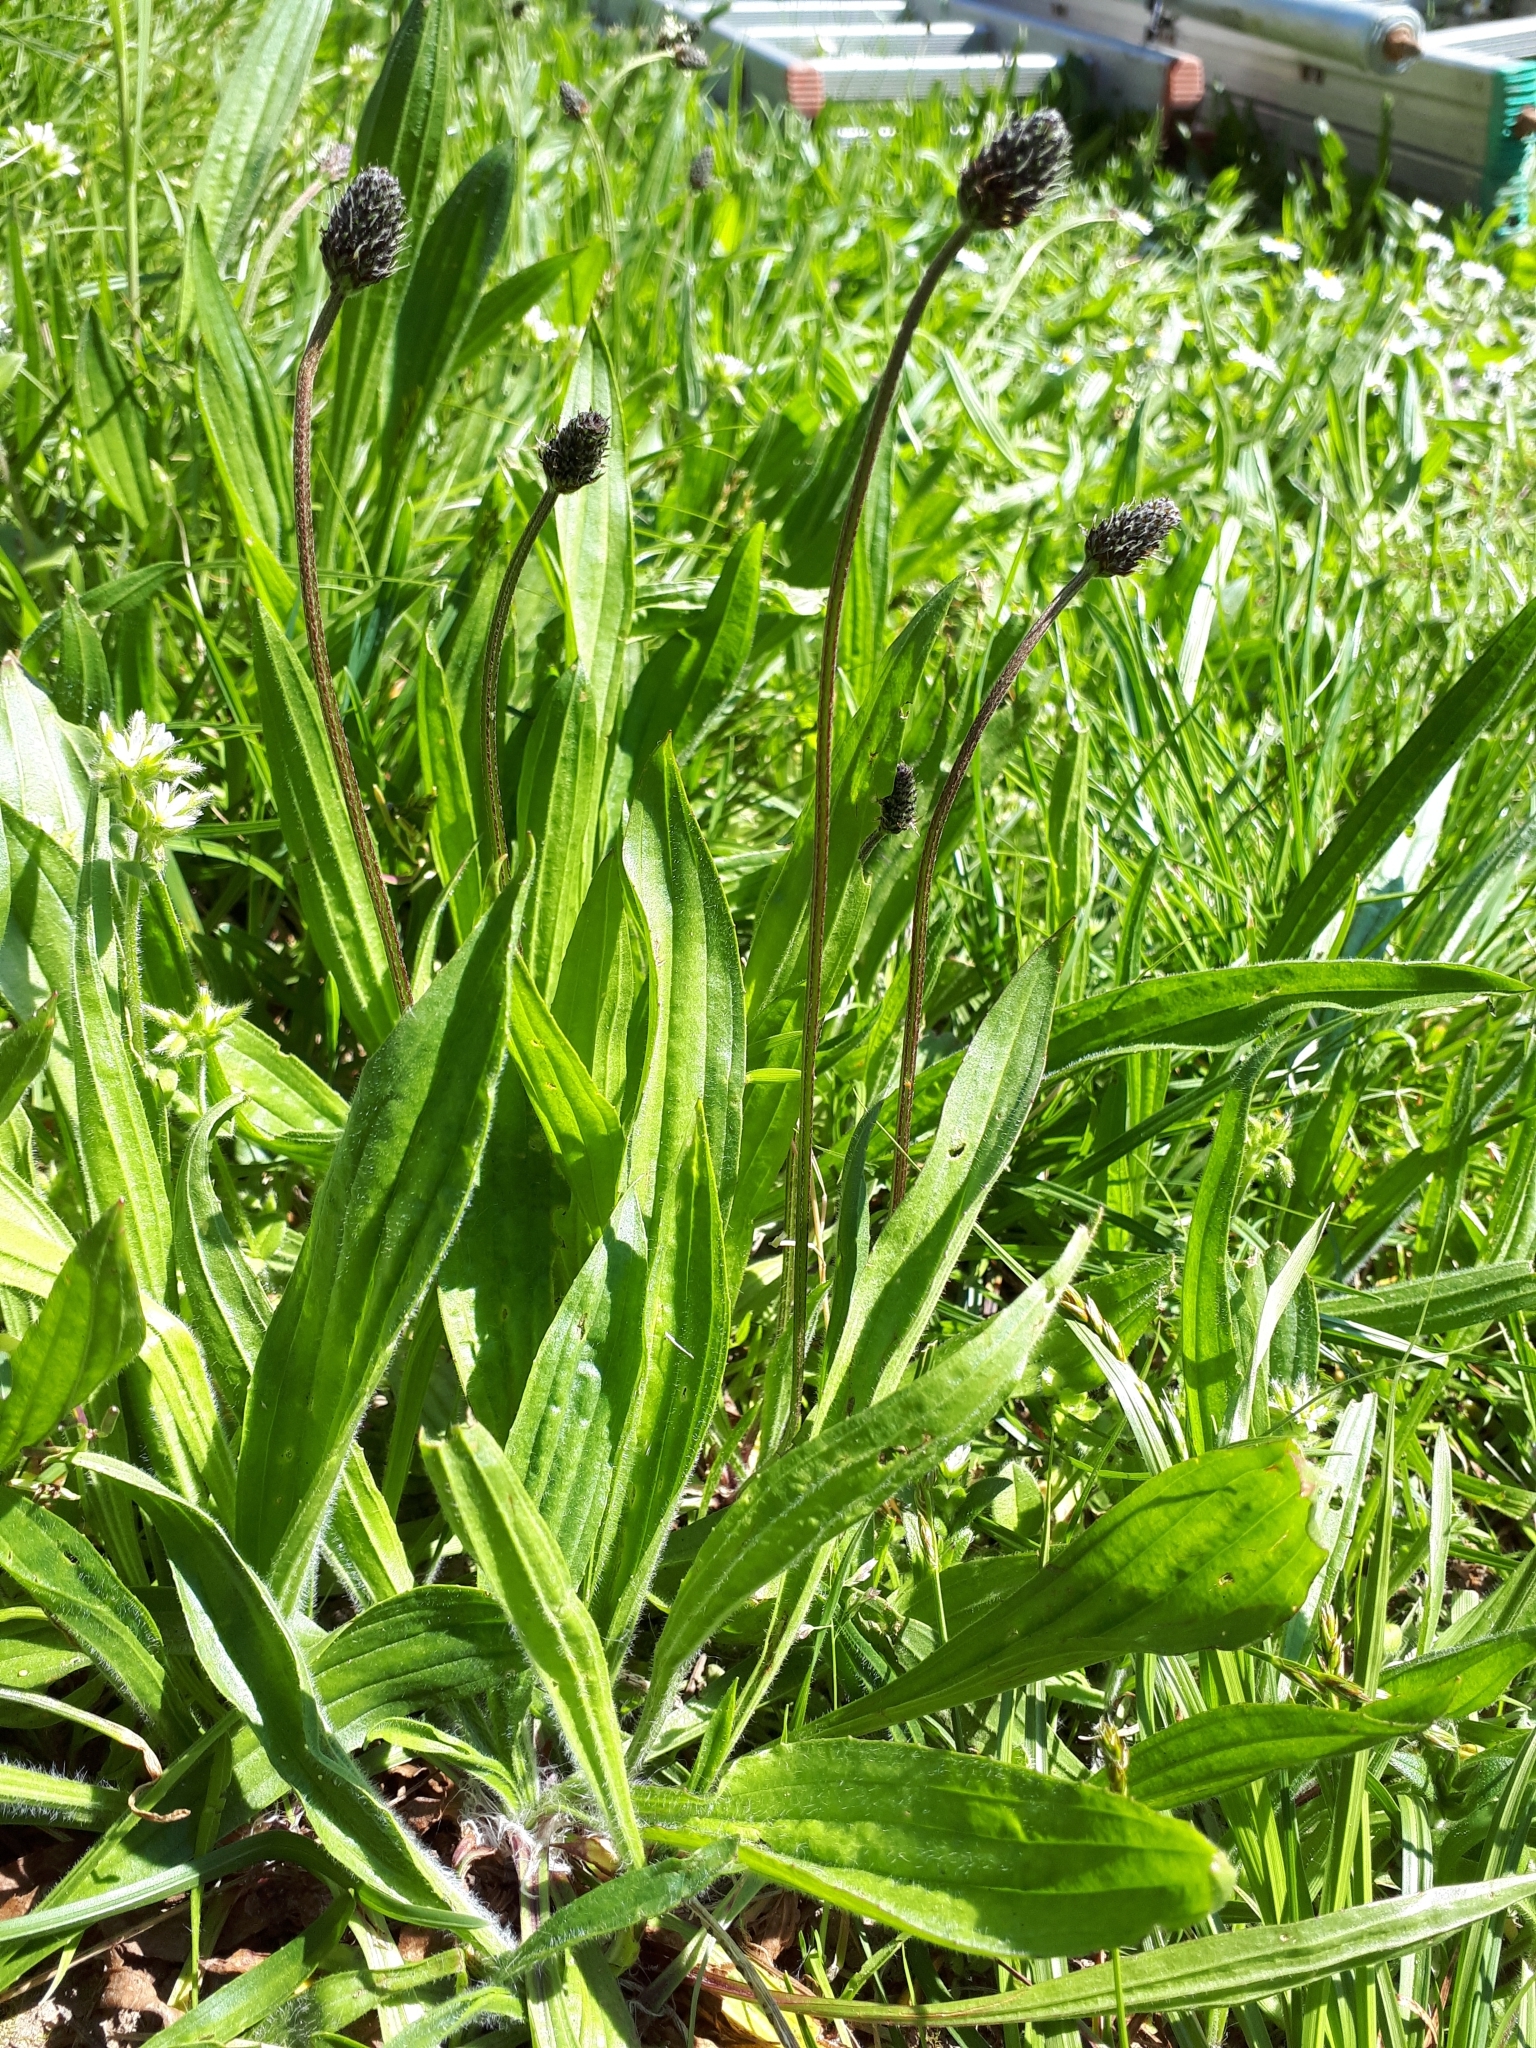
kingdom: Plantae
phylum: Tracheophyta
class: Magnoliopsida
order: Lamiales
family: Plantaginaceae
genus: Plantago
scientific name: Plantago lanceolata
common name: Ribwort plantain
